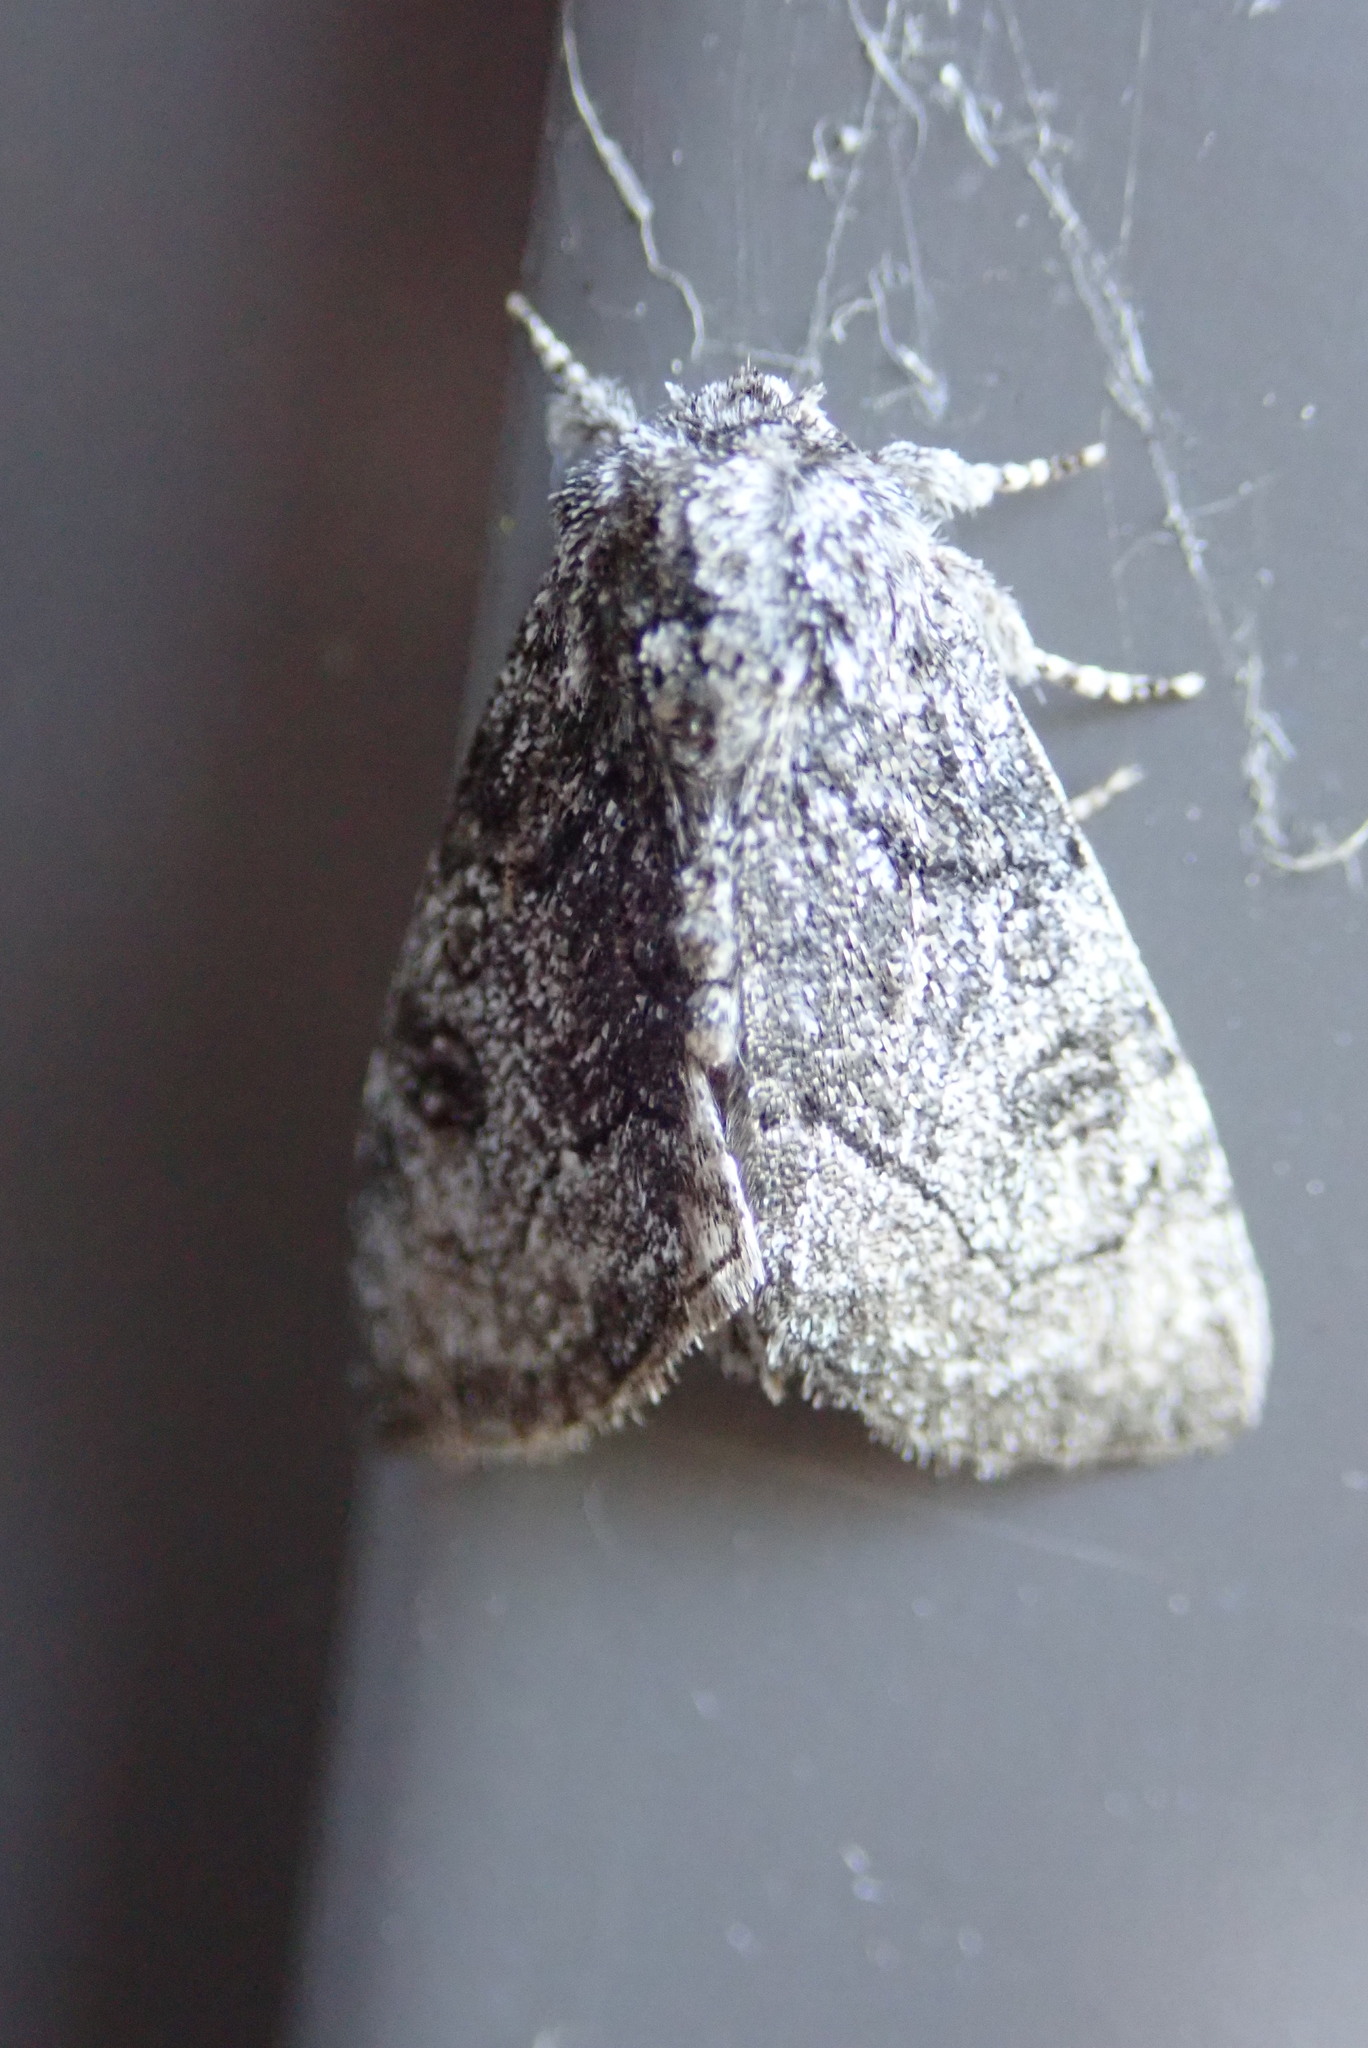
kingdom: Animalia
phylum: Arthropoda
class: Insecta
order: Lepidoptera
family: Noctuidae
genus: Raphia
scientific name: Raphia frater
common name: Brother
